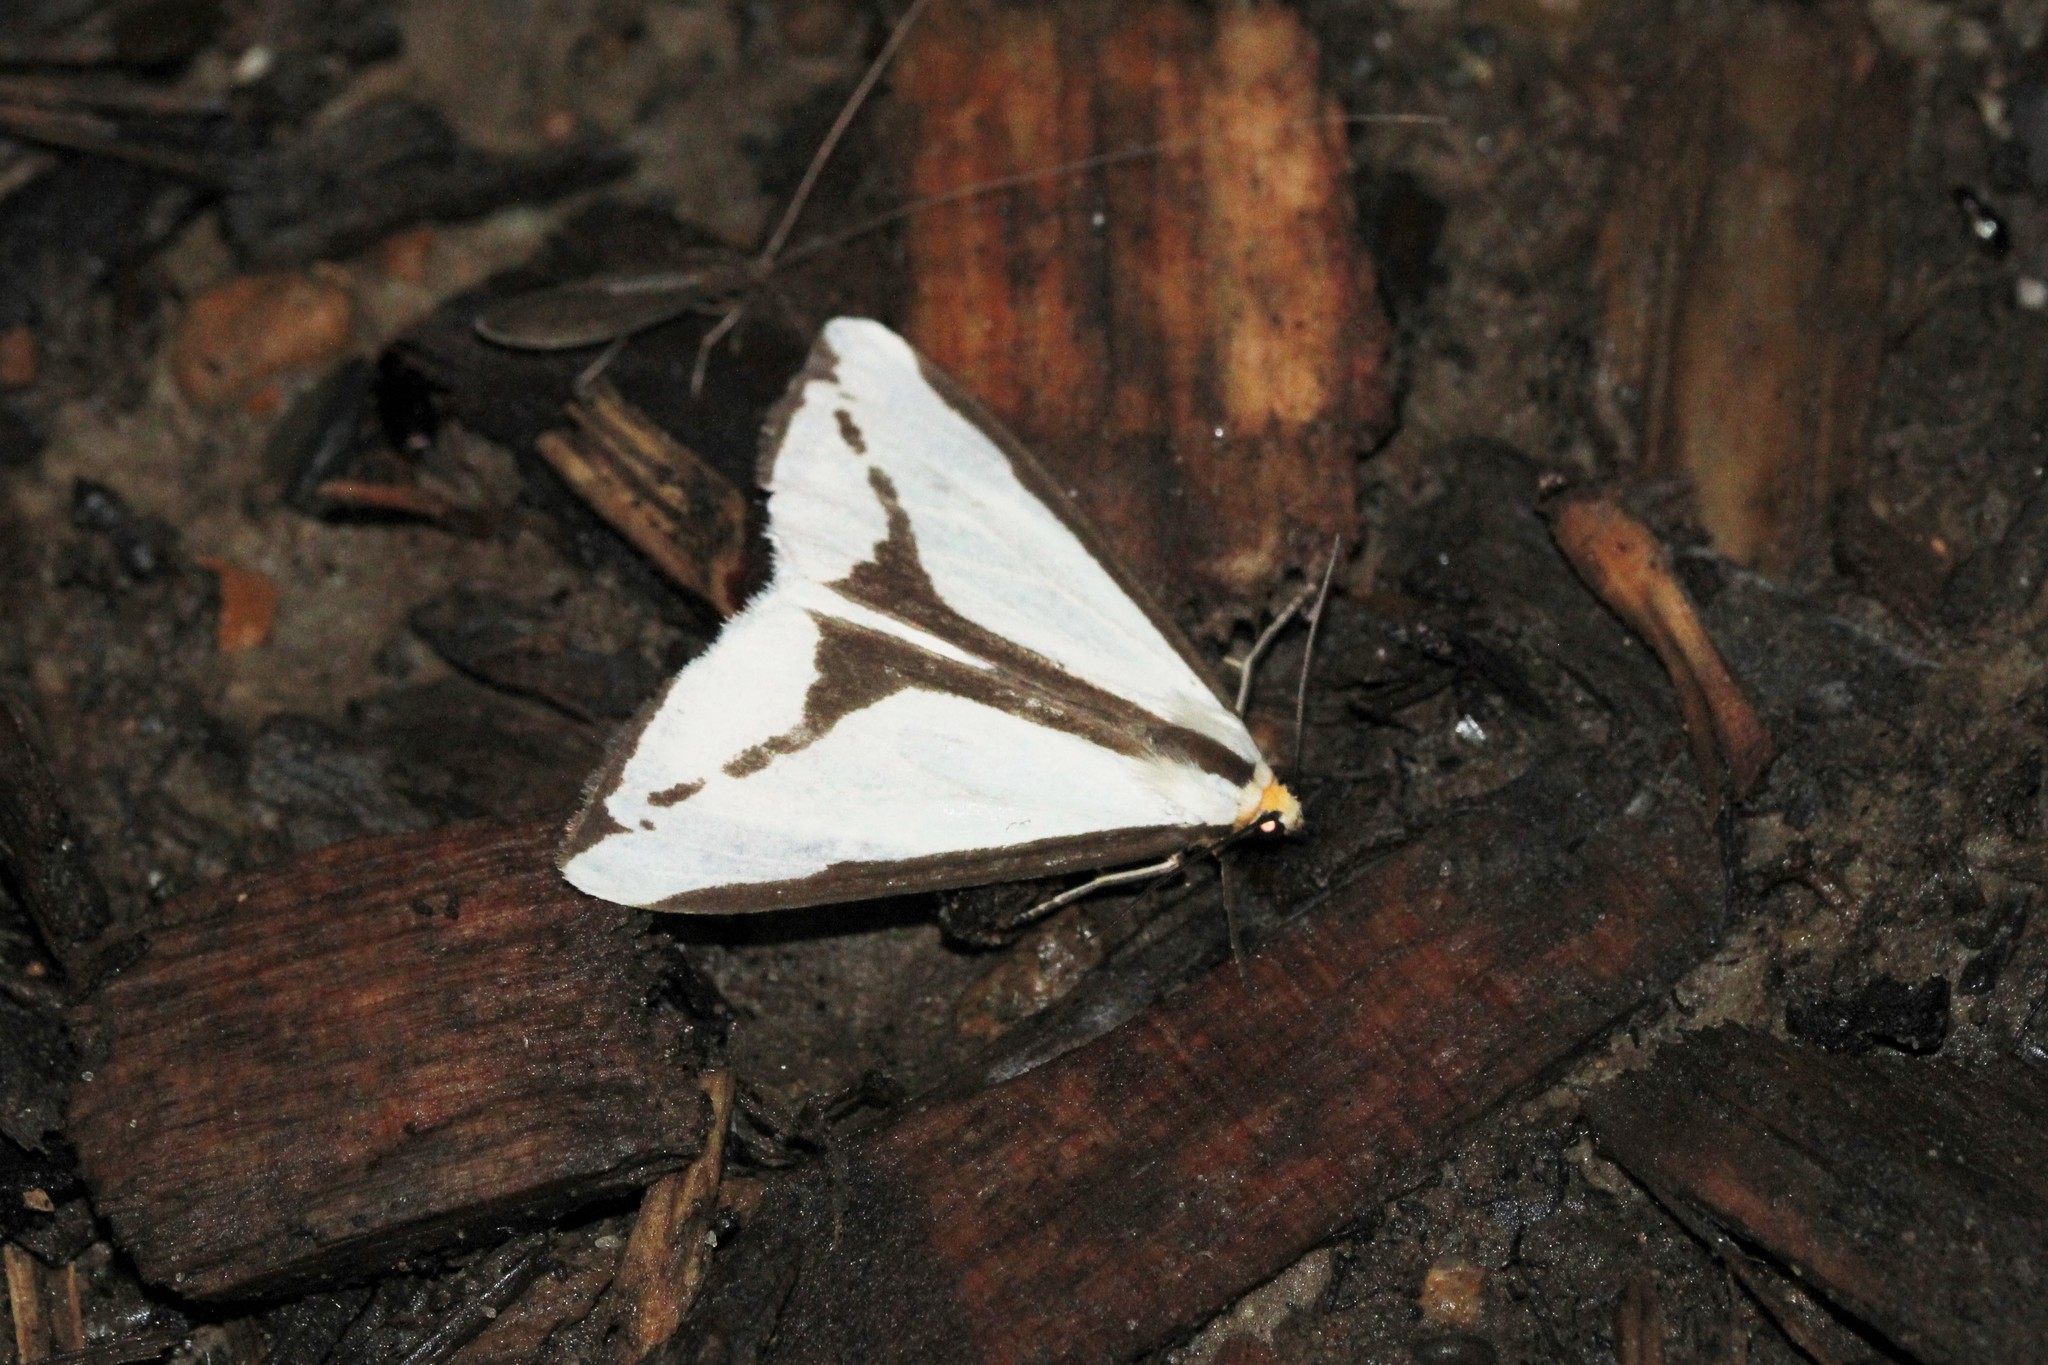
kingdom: Animalia
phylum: Arthropoda
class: Insecta
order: Lepidoptera
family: Erebidae
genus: Haploa
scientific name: Haploa lecontei
